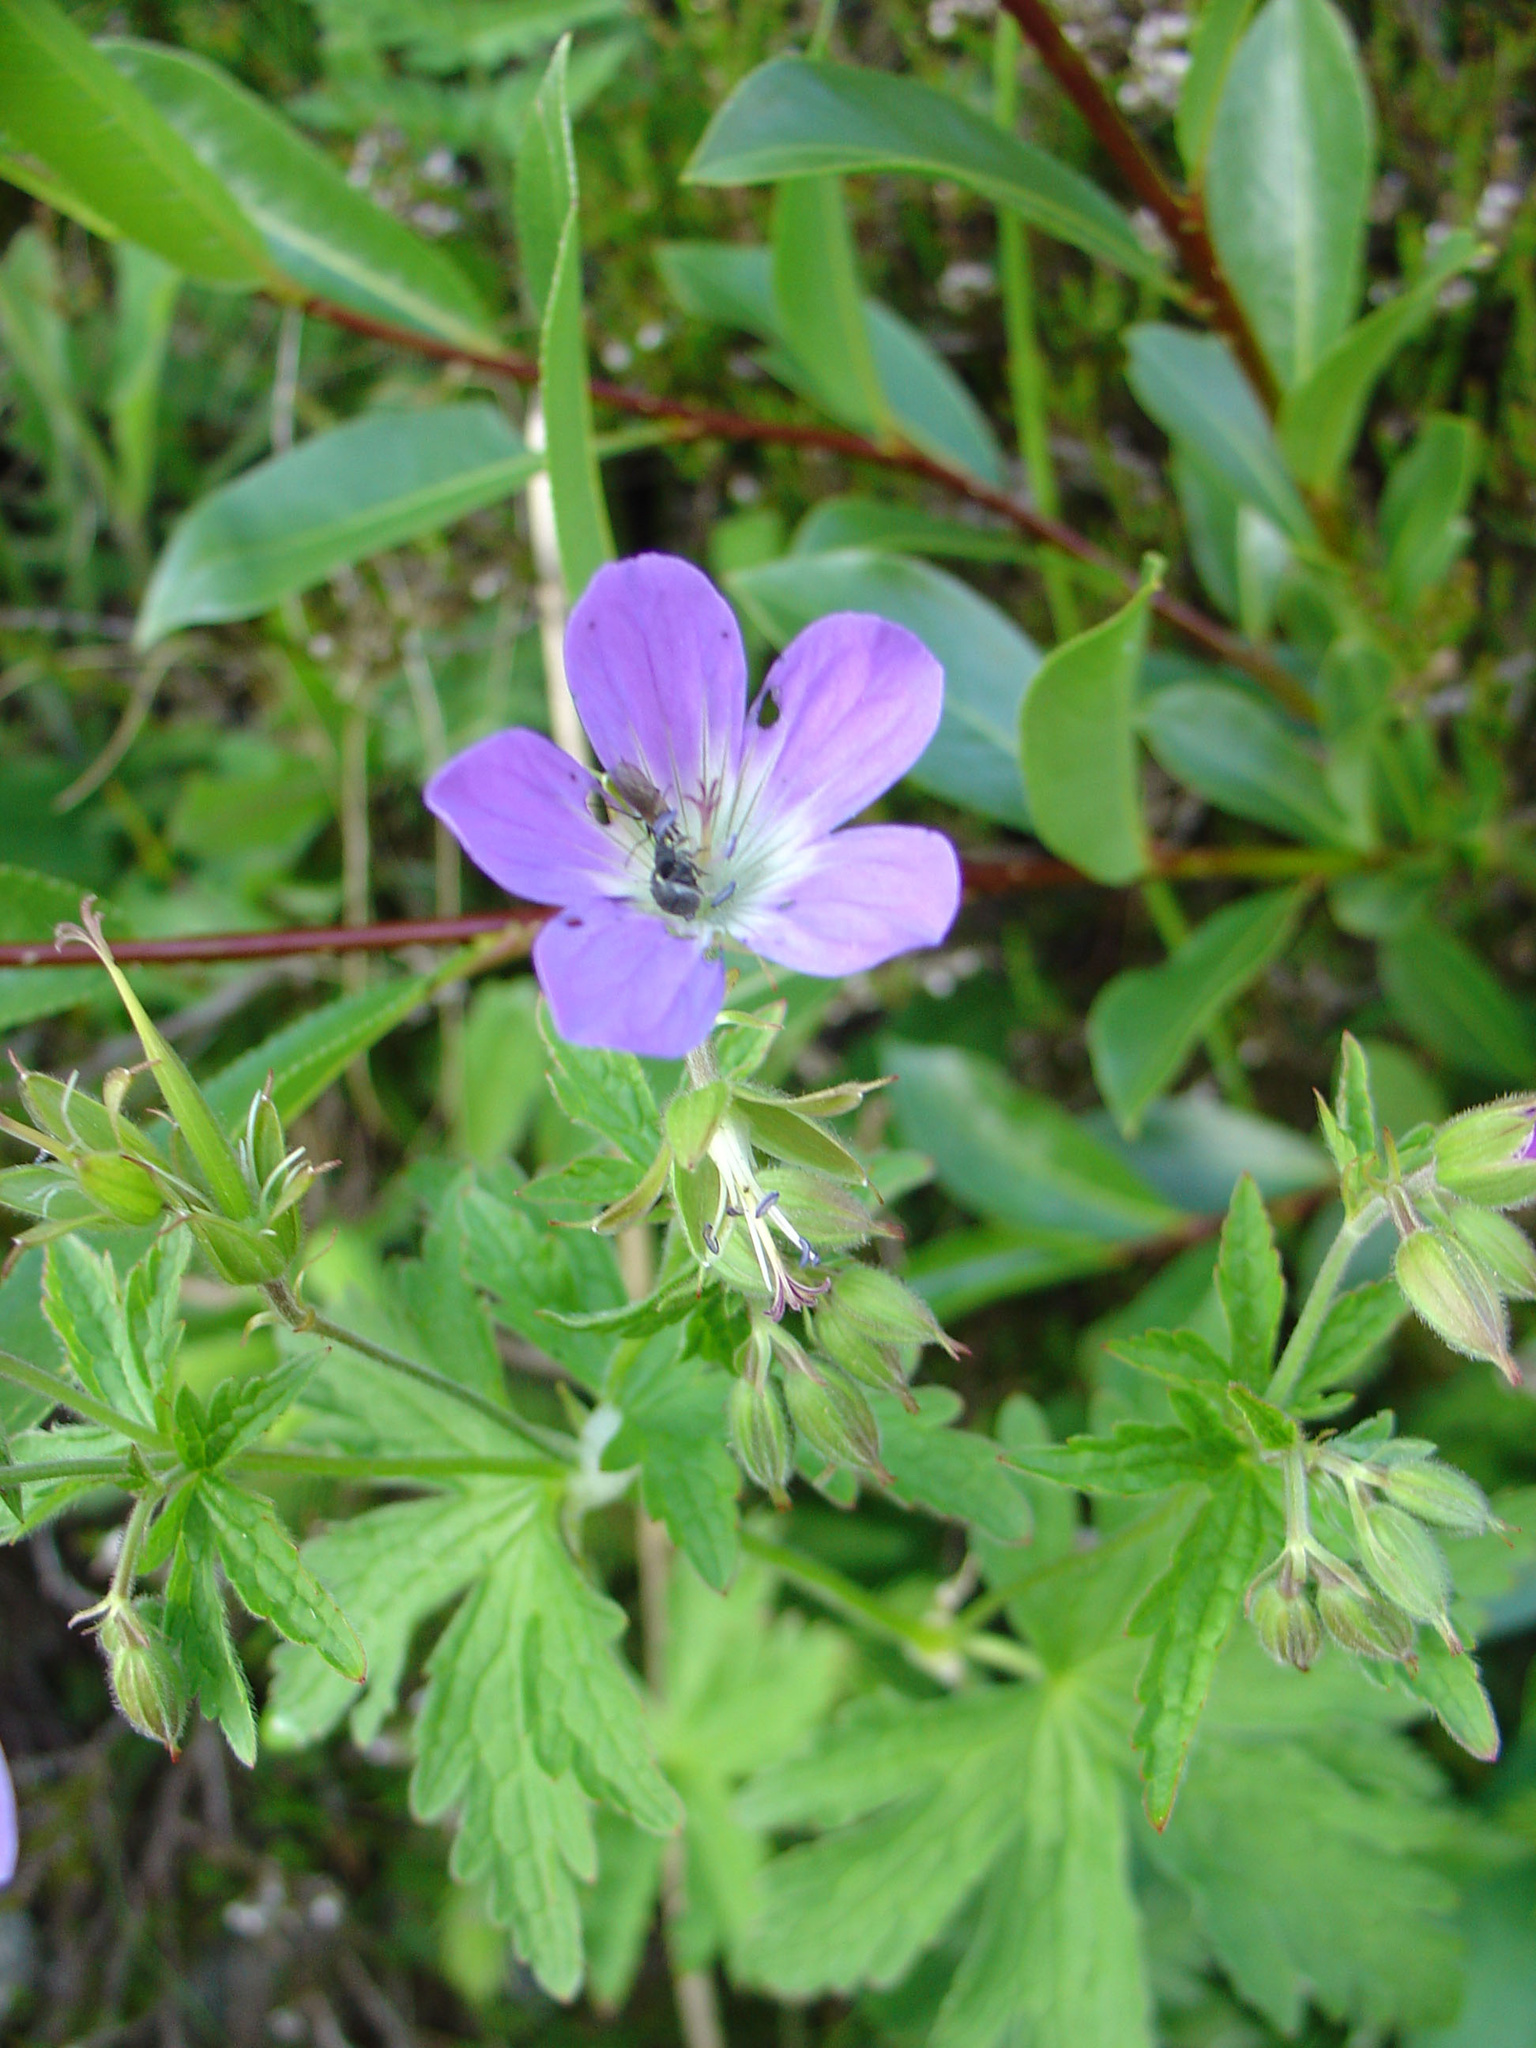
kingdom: Plantae
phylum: Tracheophyta
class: Magnoliopsida
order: Geraniales
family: Geraniaceae
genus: Geranium
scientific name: Geranium sylvaticum
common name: Wood crane's-bill
